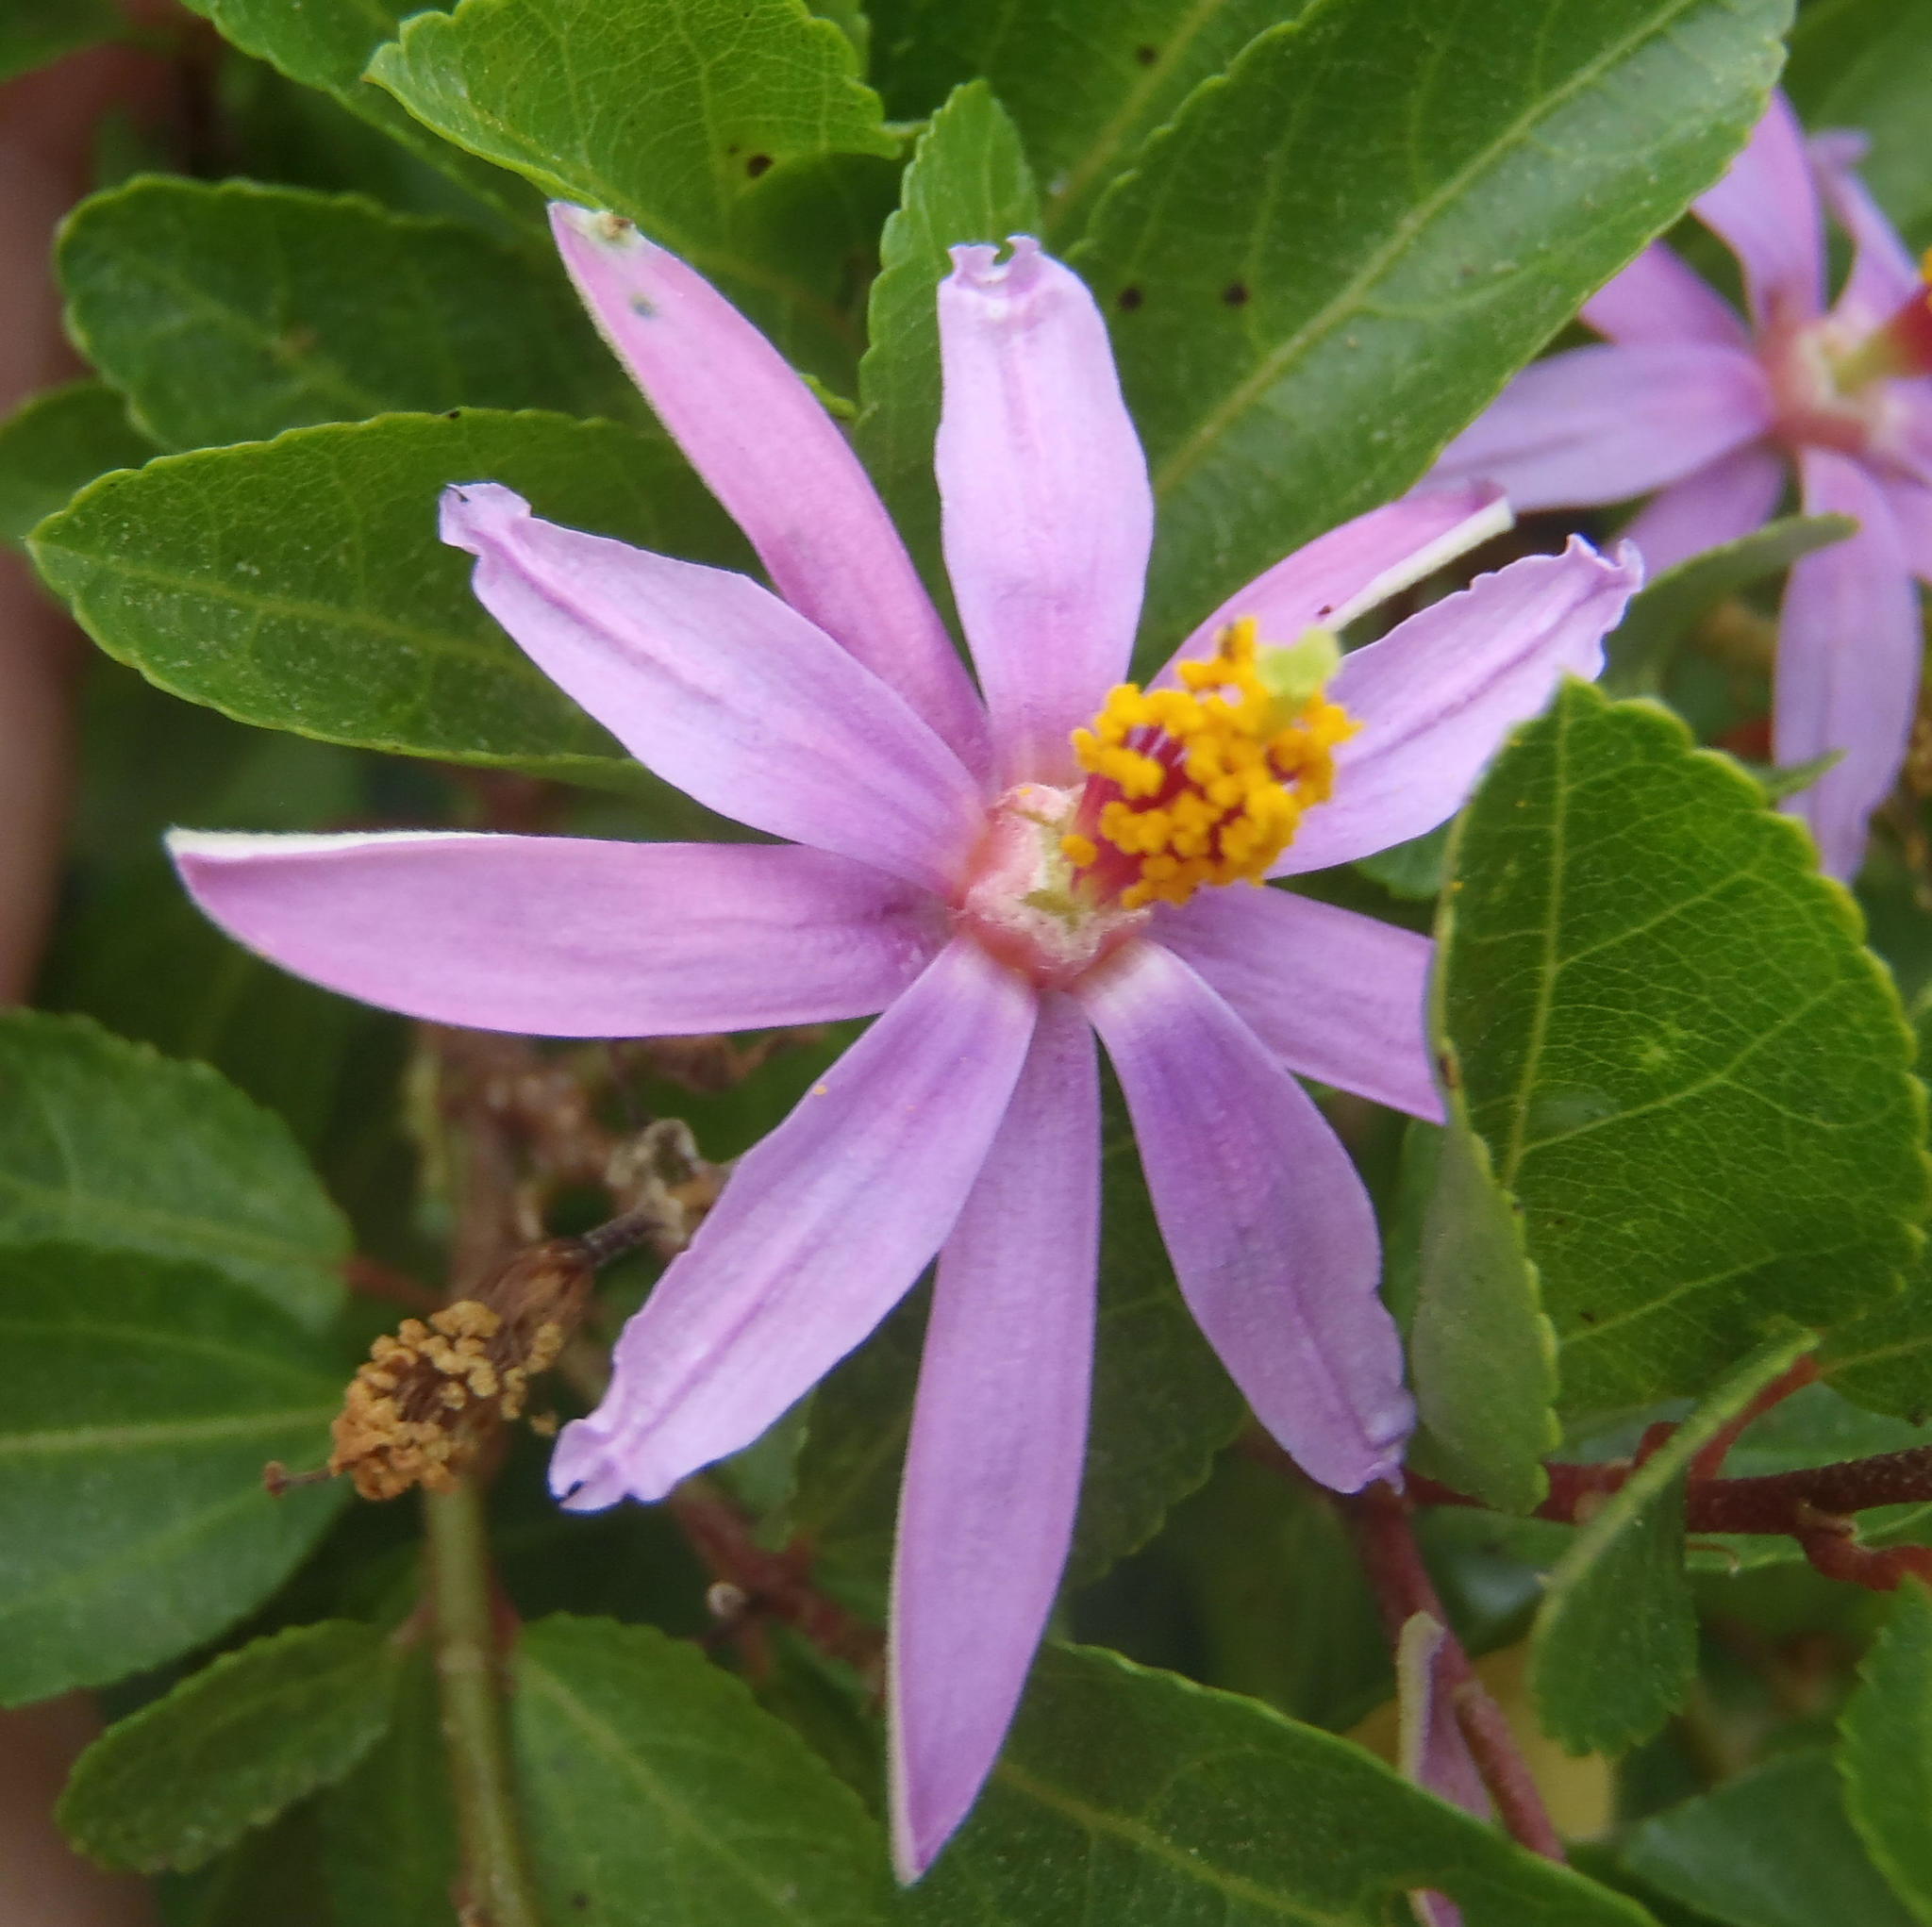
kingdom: Plantae
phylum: Tracheophyta
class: Magnoliopsida
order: Malvales
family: Malvaceae
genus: Grewia
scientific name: Grewia occidentalis
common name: Crossberry
